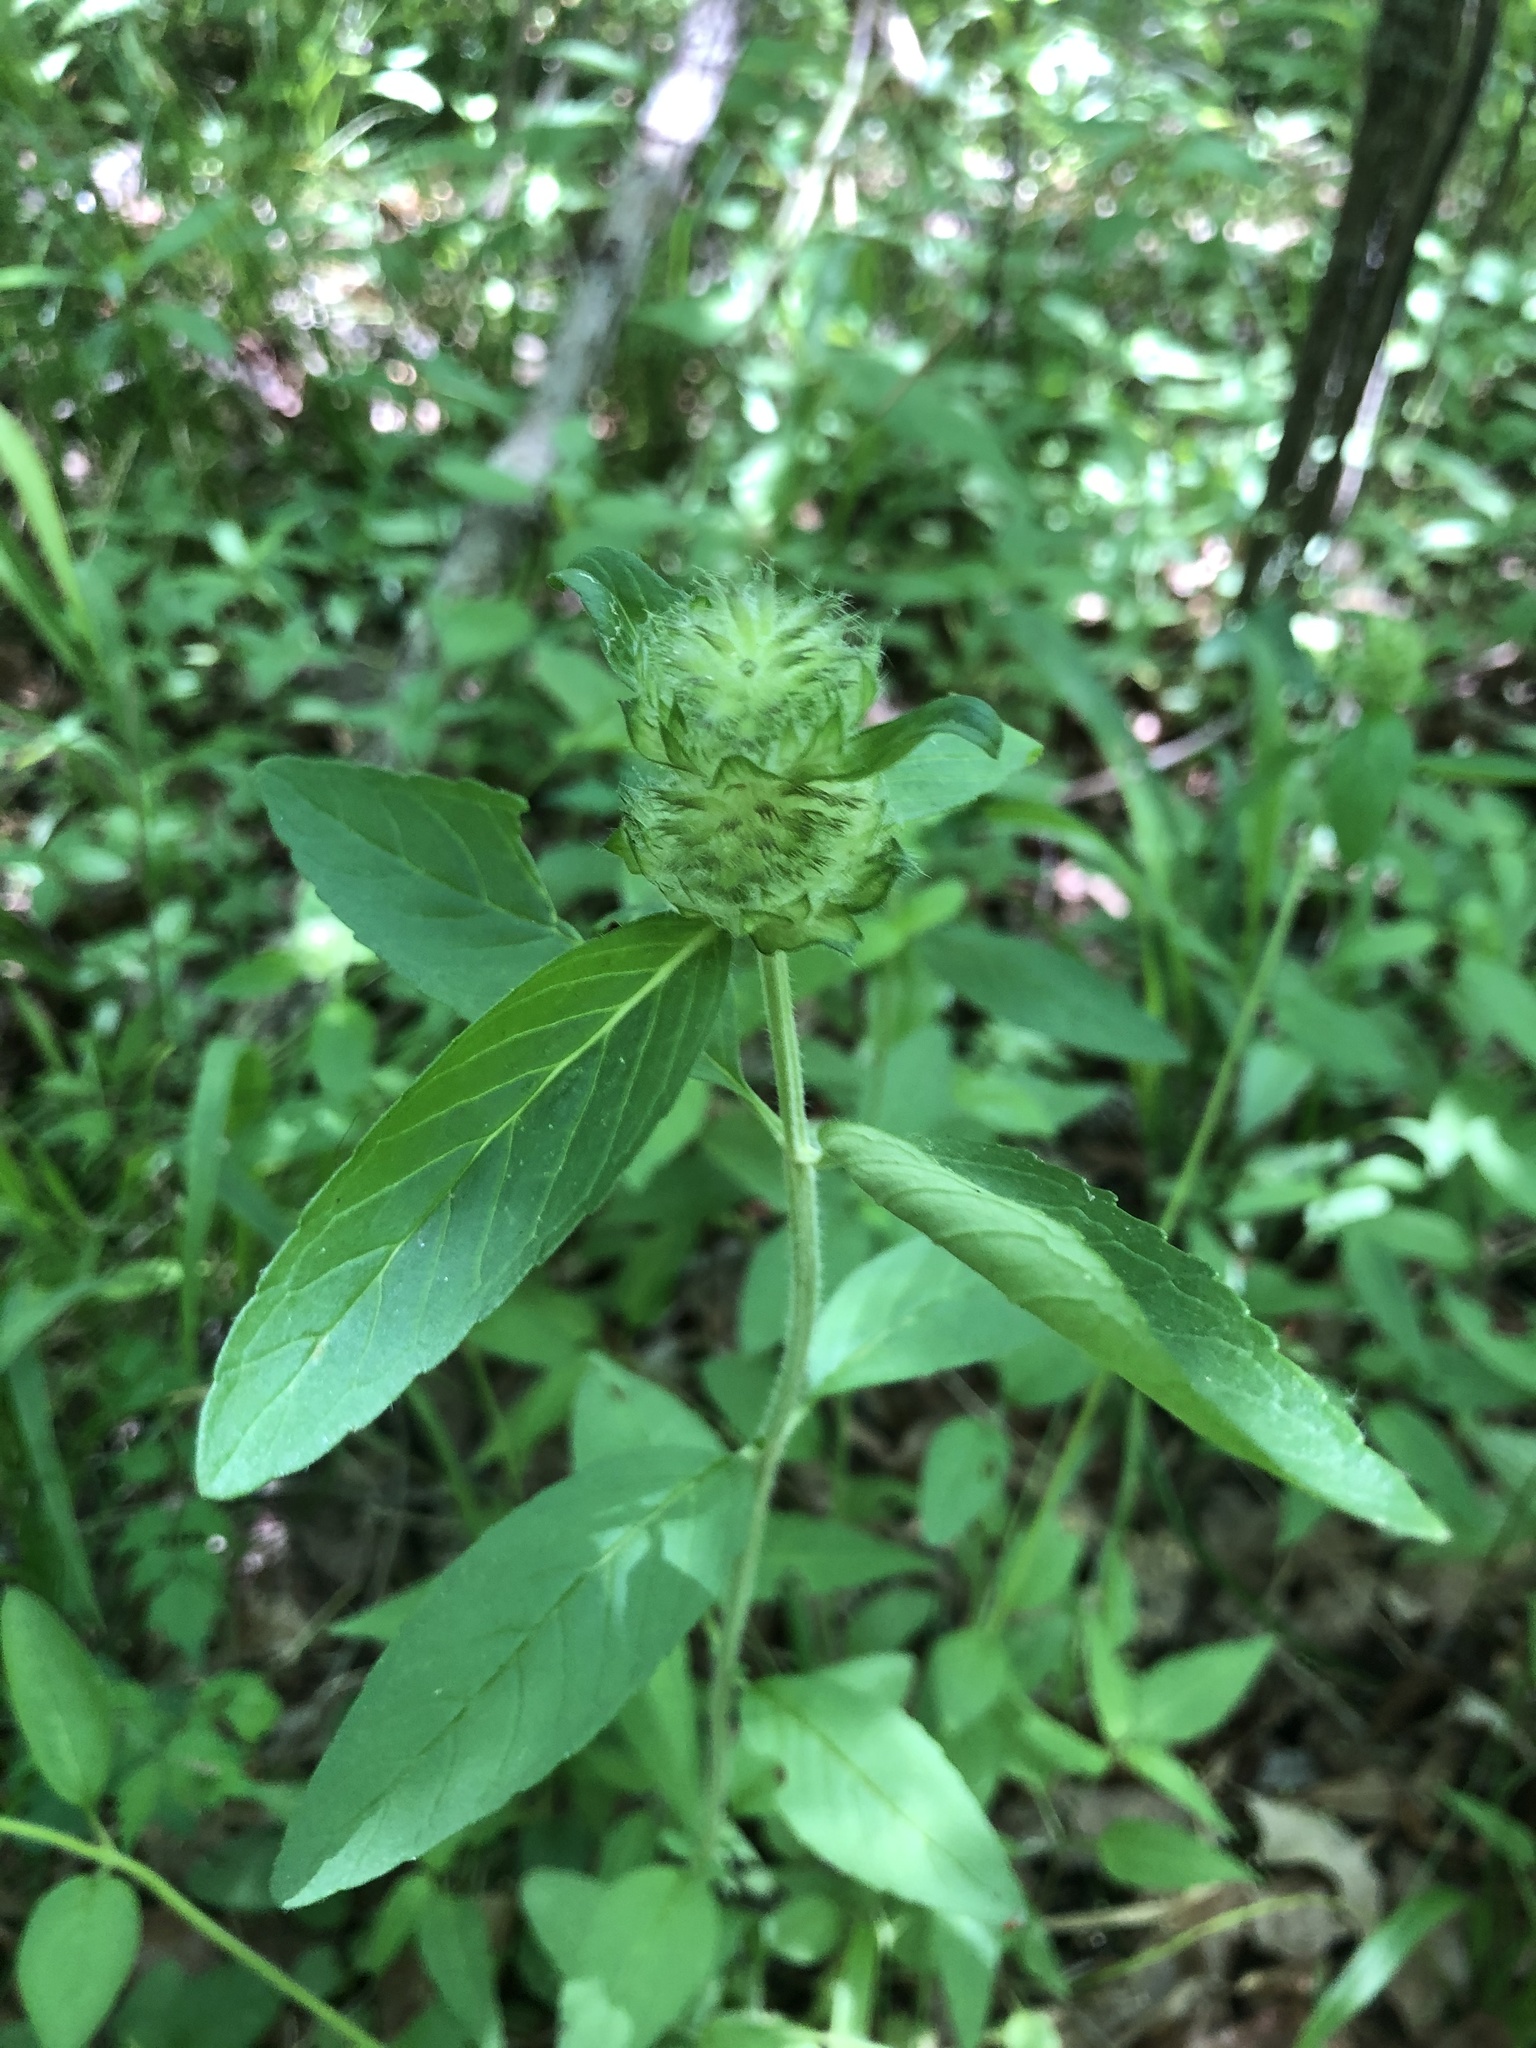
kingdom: Plantae
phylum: Tracheophyta
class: Magnoliopsida
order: Lamiales
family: Lamiaceae
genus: Blephilia
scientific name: Blephilia ciliata
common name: Downy blephilia
